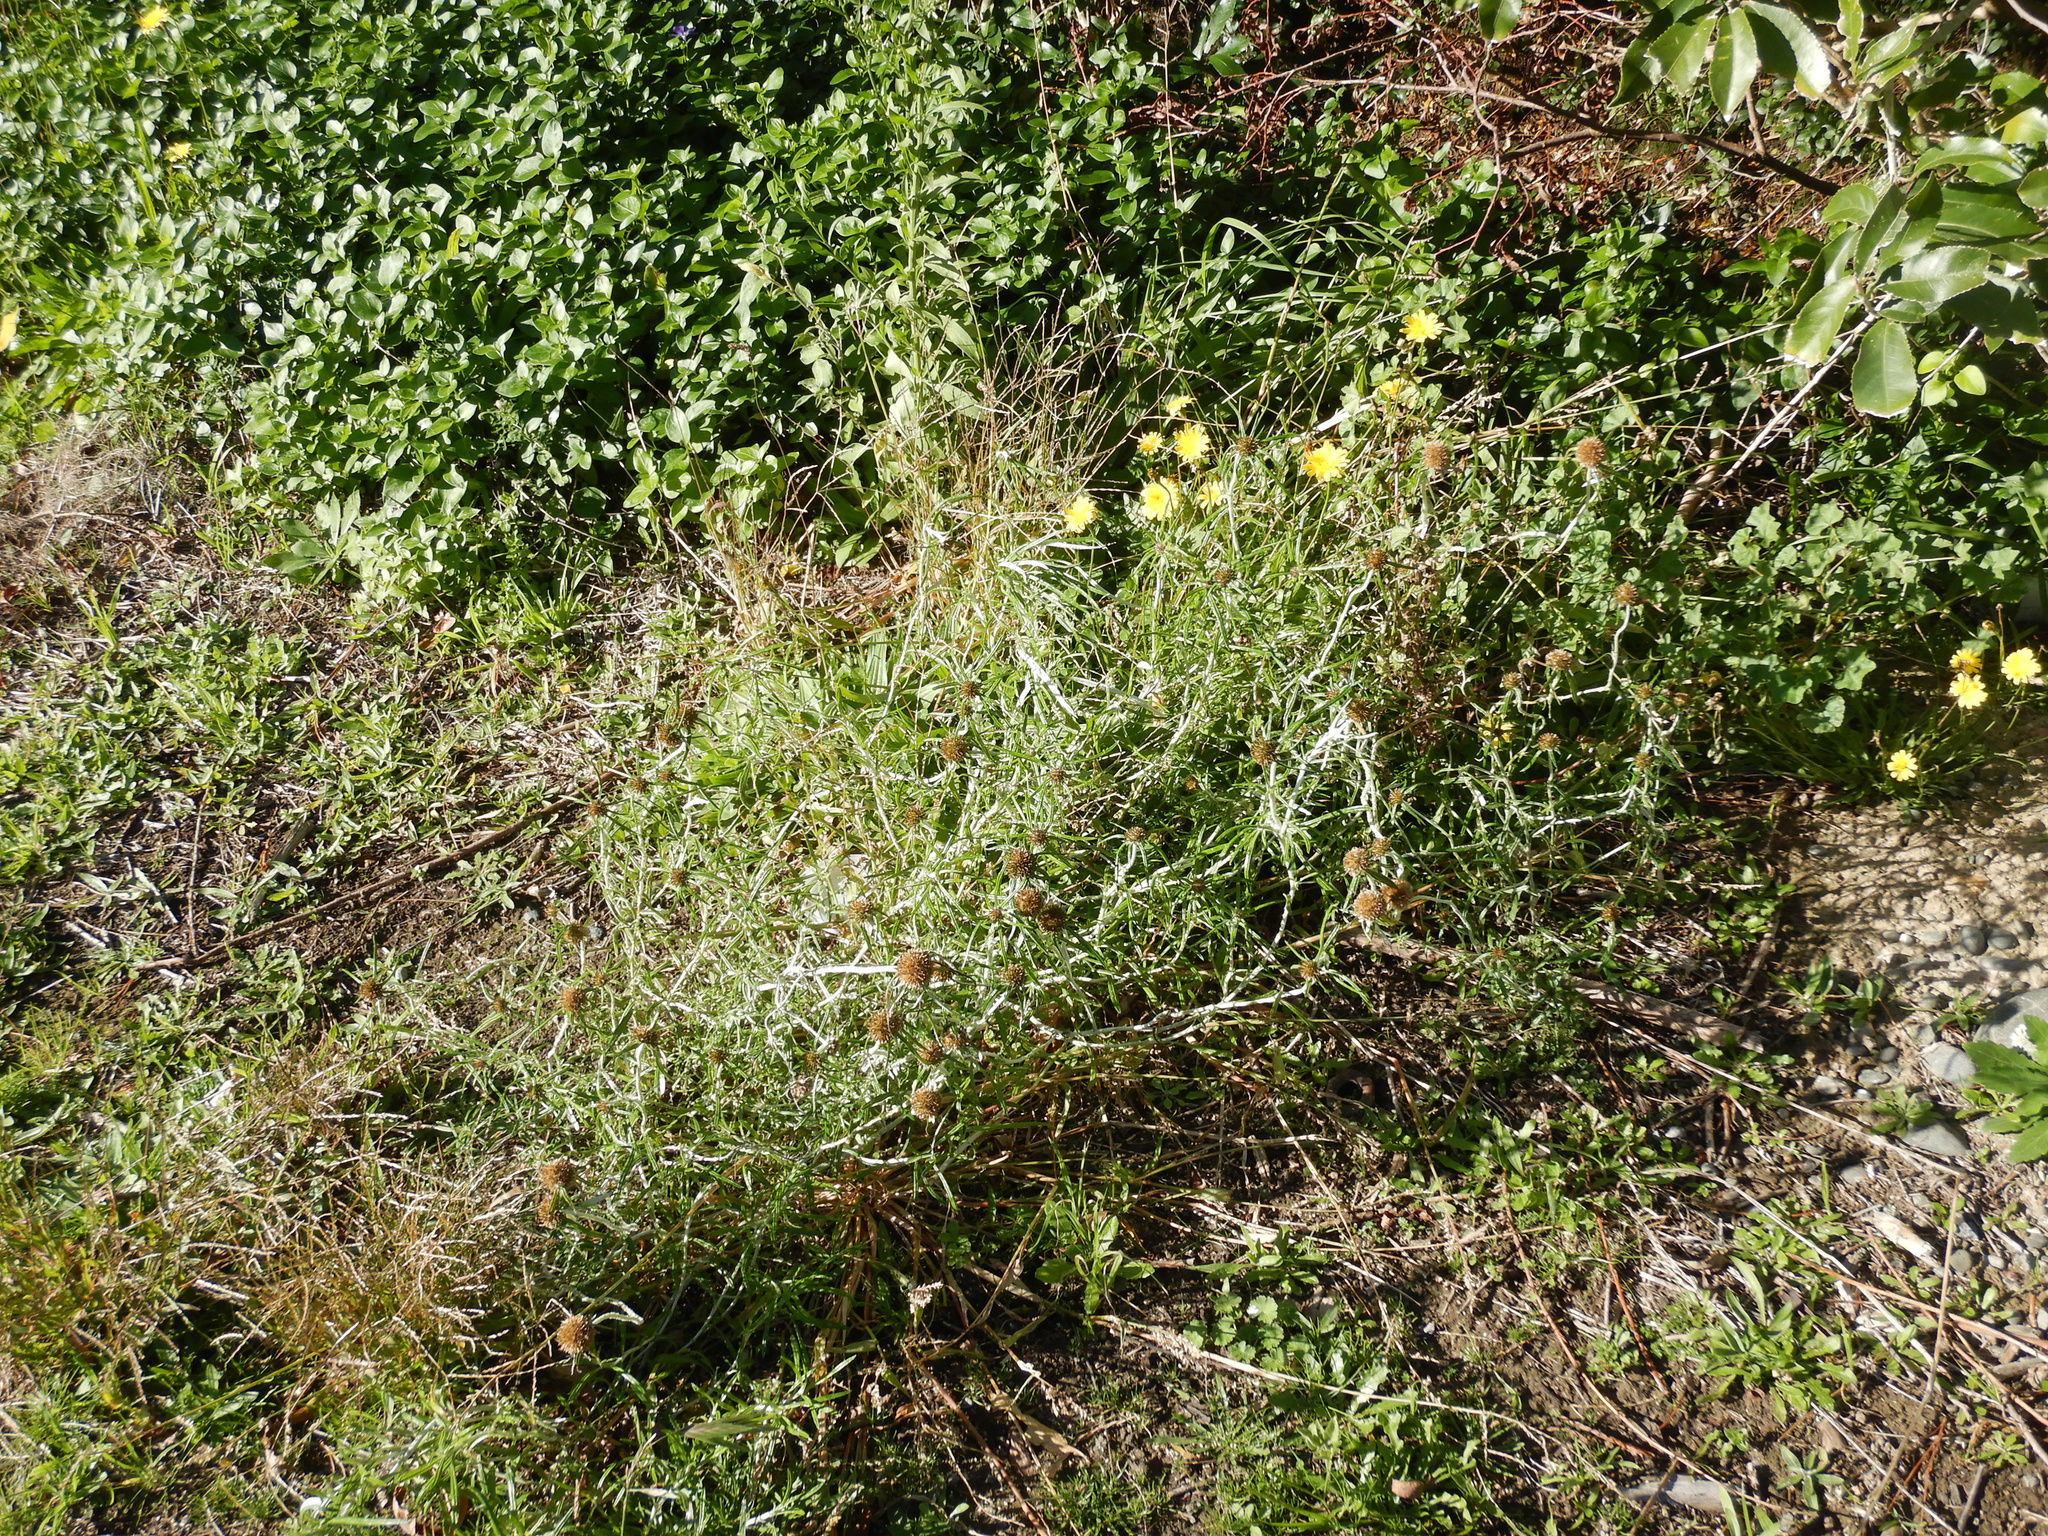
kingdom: Plantae
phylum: Tracheophyta
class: Magnoliopsida
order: Asterales
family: Asteraceae
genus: Helichrysum
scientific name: Helichrysum luteoalbum
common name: Daisy
